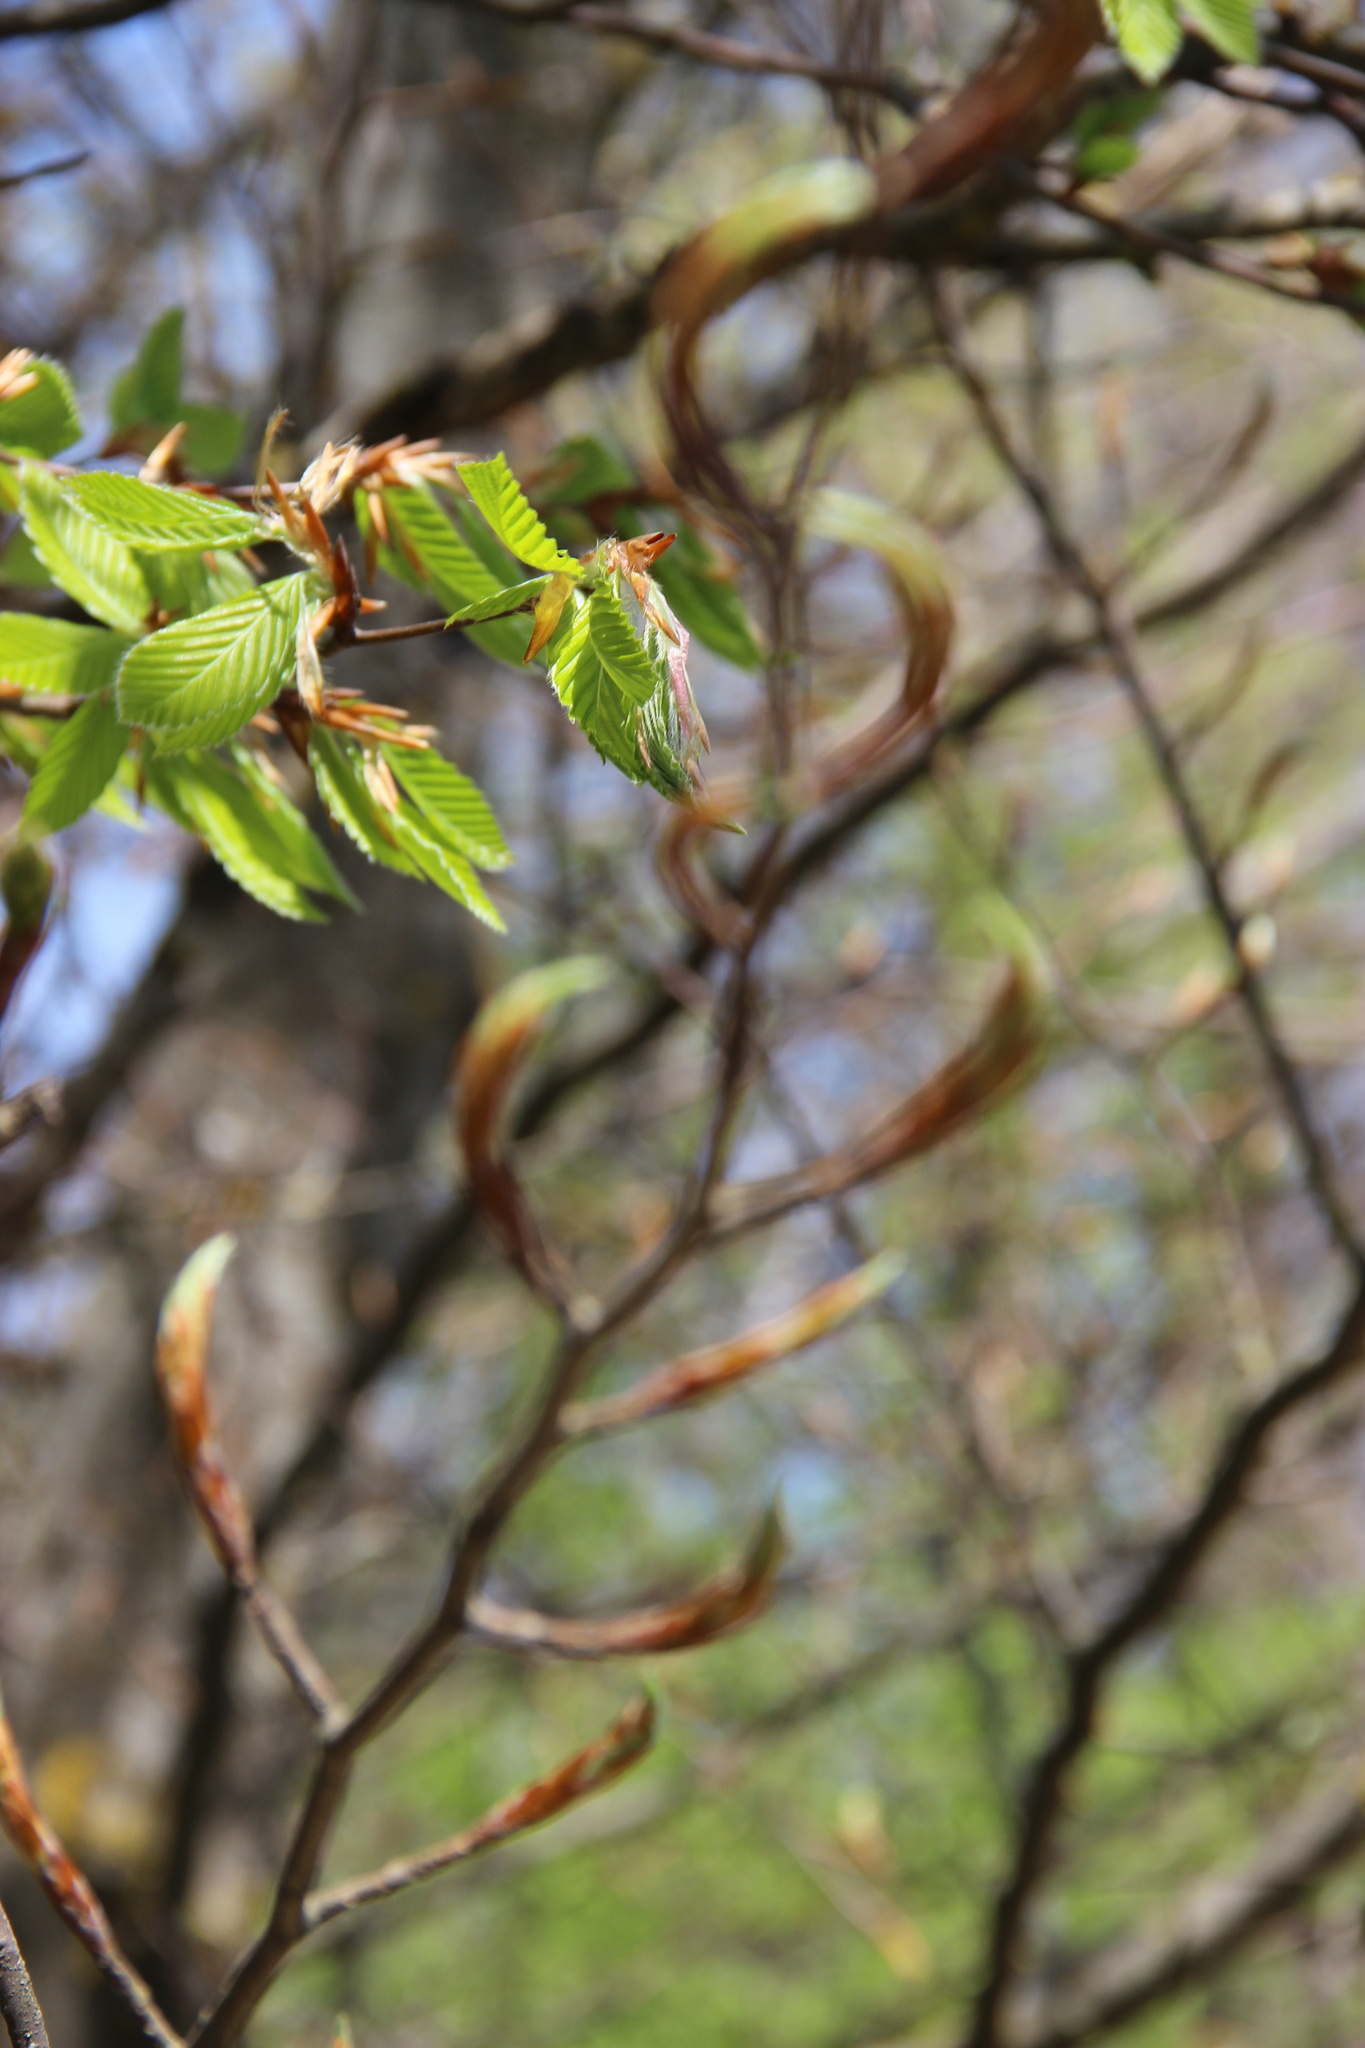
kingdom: Plantae
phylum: Tracheophyta
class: Magnoliopsida
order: Fagales
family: Fagaceae
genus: Fagus
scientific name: Fagus orientalis
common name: Oriental beech
